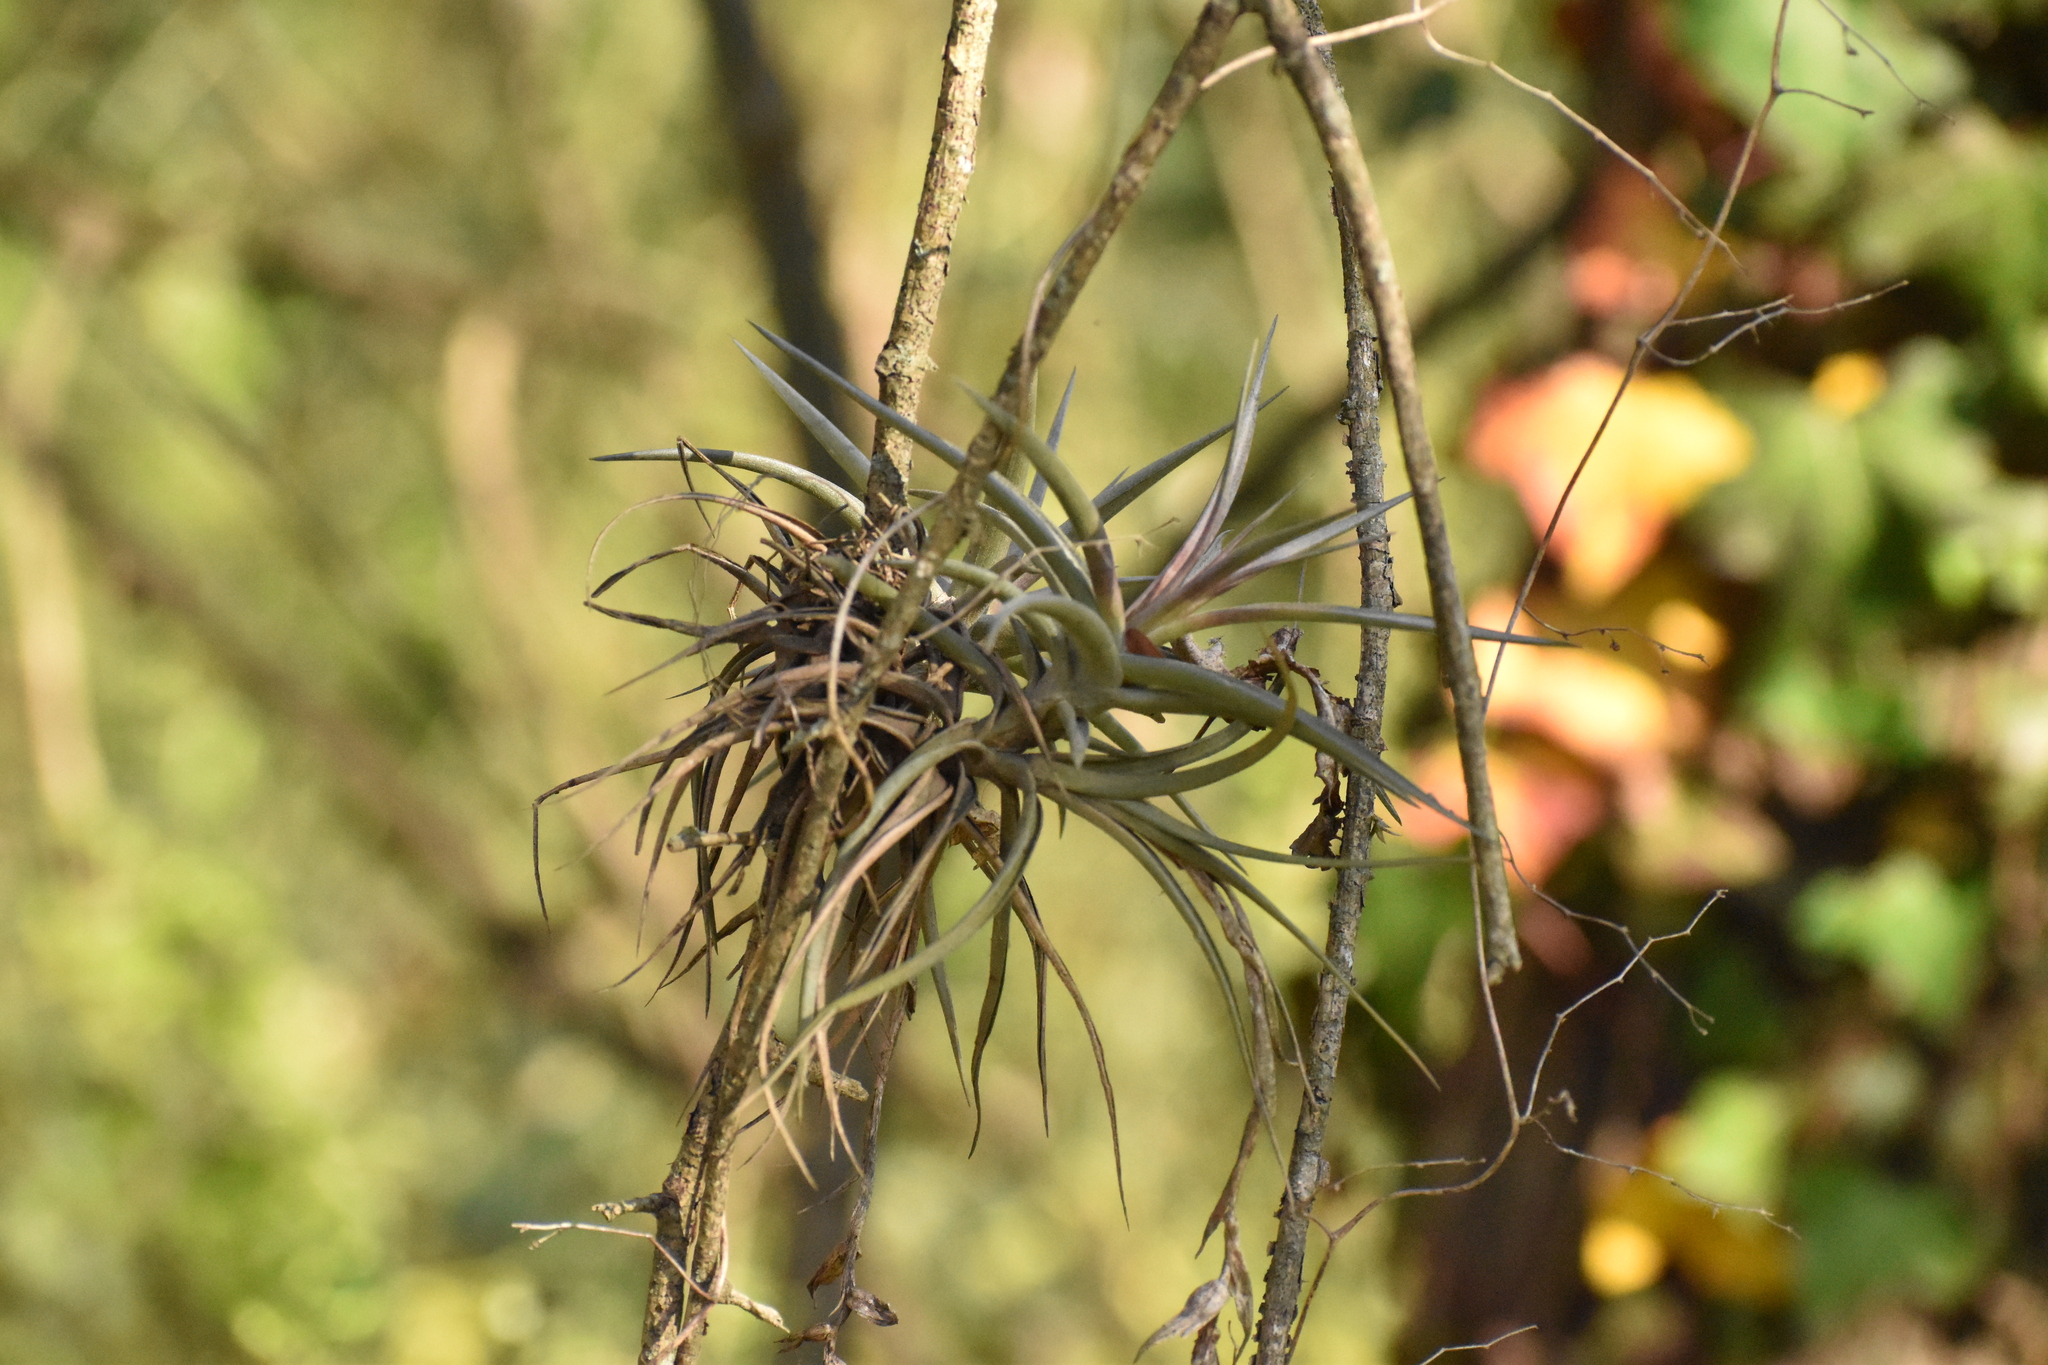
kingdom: Plantae
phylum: Tracheophyta
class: Liliopsida
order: Poales
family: Bromeliaceae
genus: Tillandsia
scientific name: Tillandsia aeranthos
